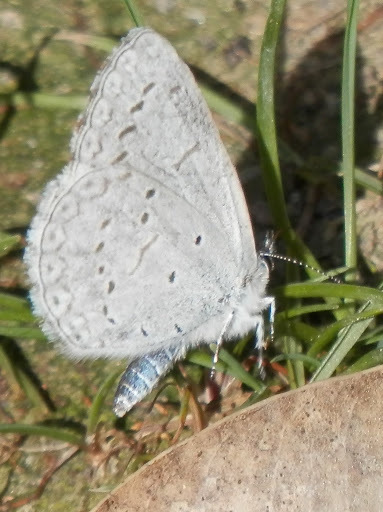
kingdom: Animalia
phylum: Arthropoda
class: Insecta
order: Lepidoptera
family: Lycaenidae
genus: Celastrina
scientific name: Celastrina ladon
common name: Spring azure
